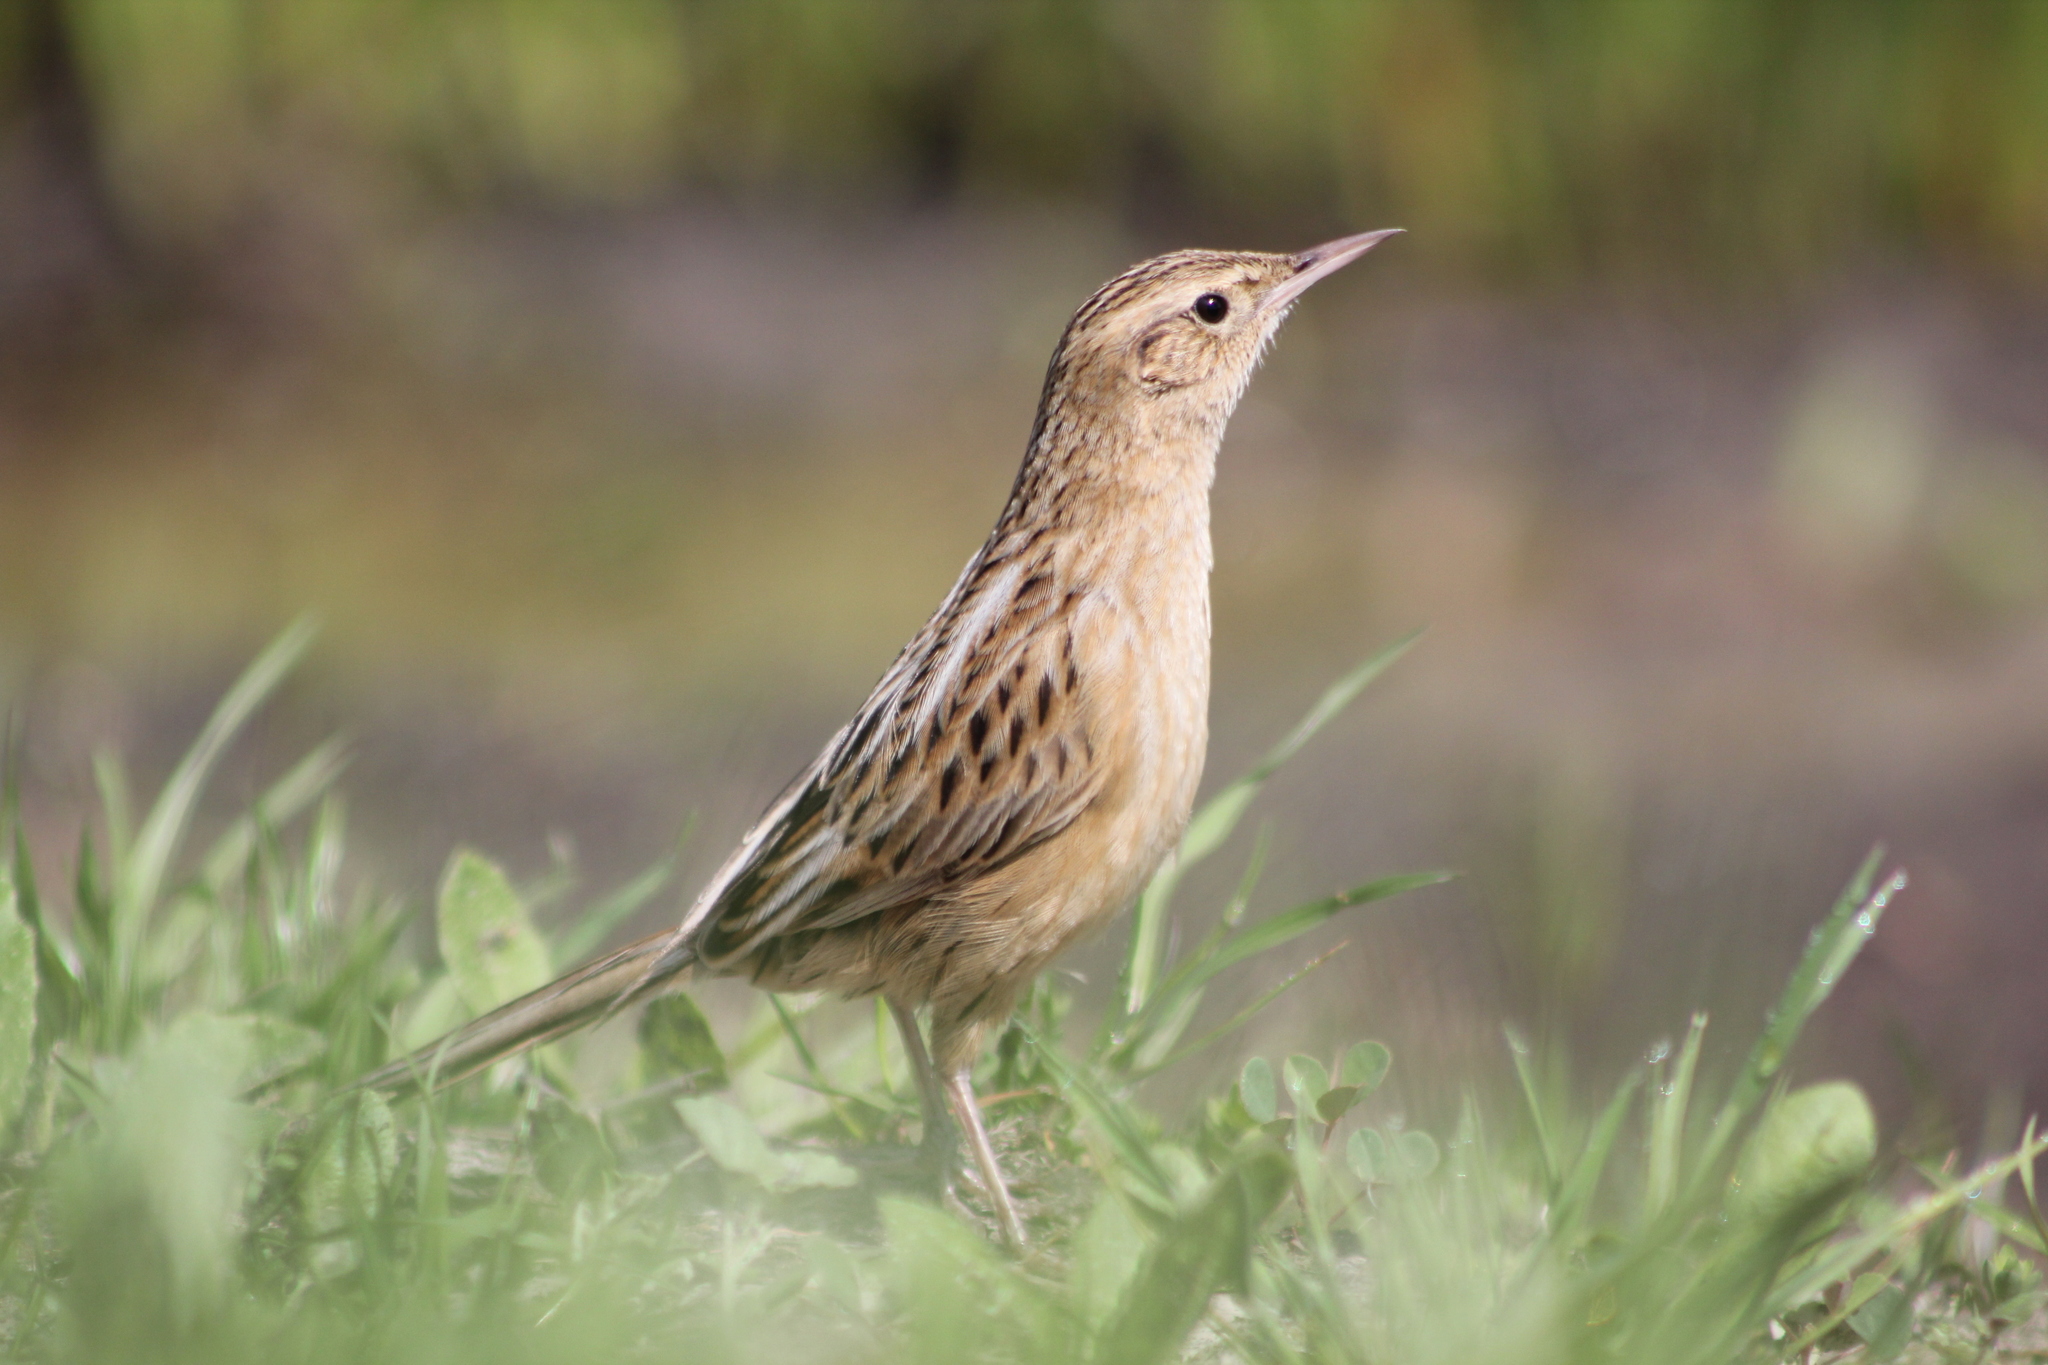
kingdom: Animalia
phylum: Chordata
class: Aves
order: Passeriformes
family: Furnariidae
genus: Asthenes
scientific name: Asthenes hudsoni
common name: Hudson's canastero
